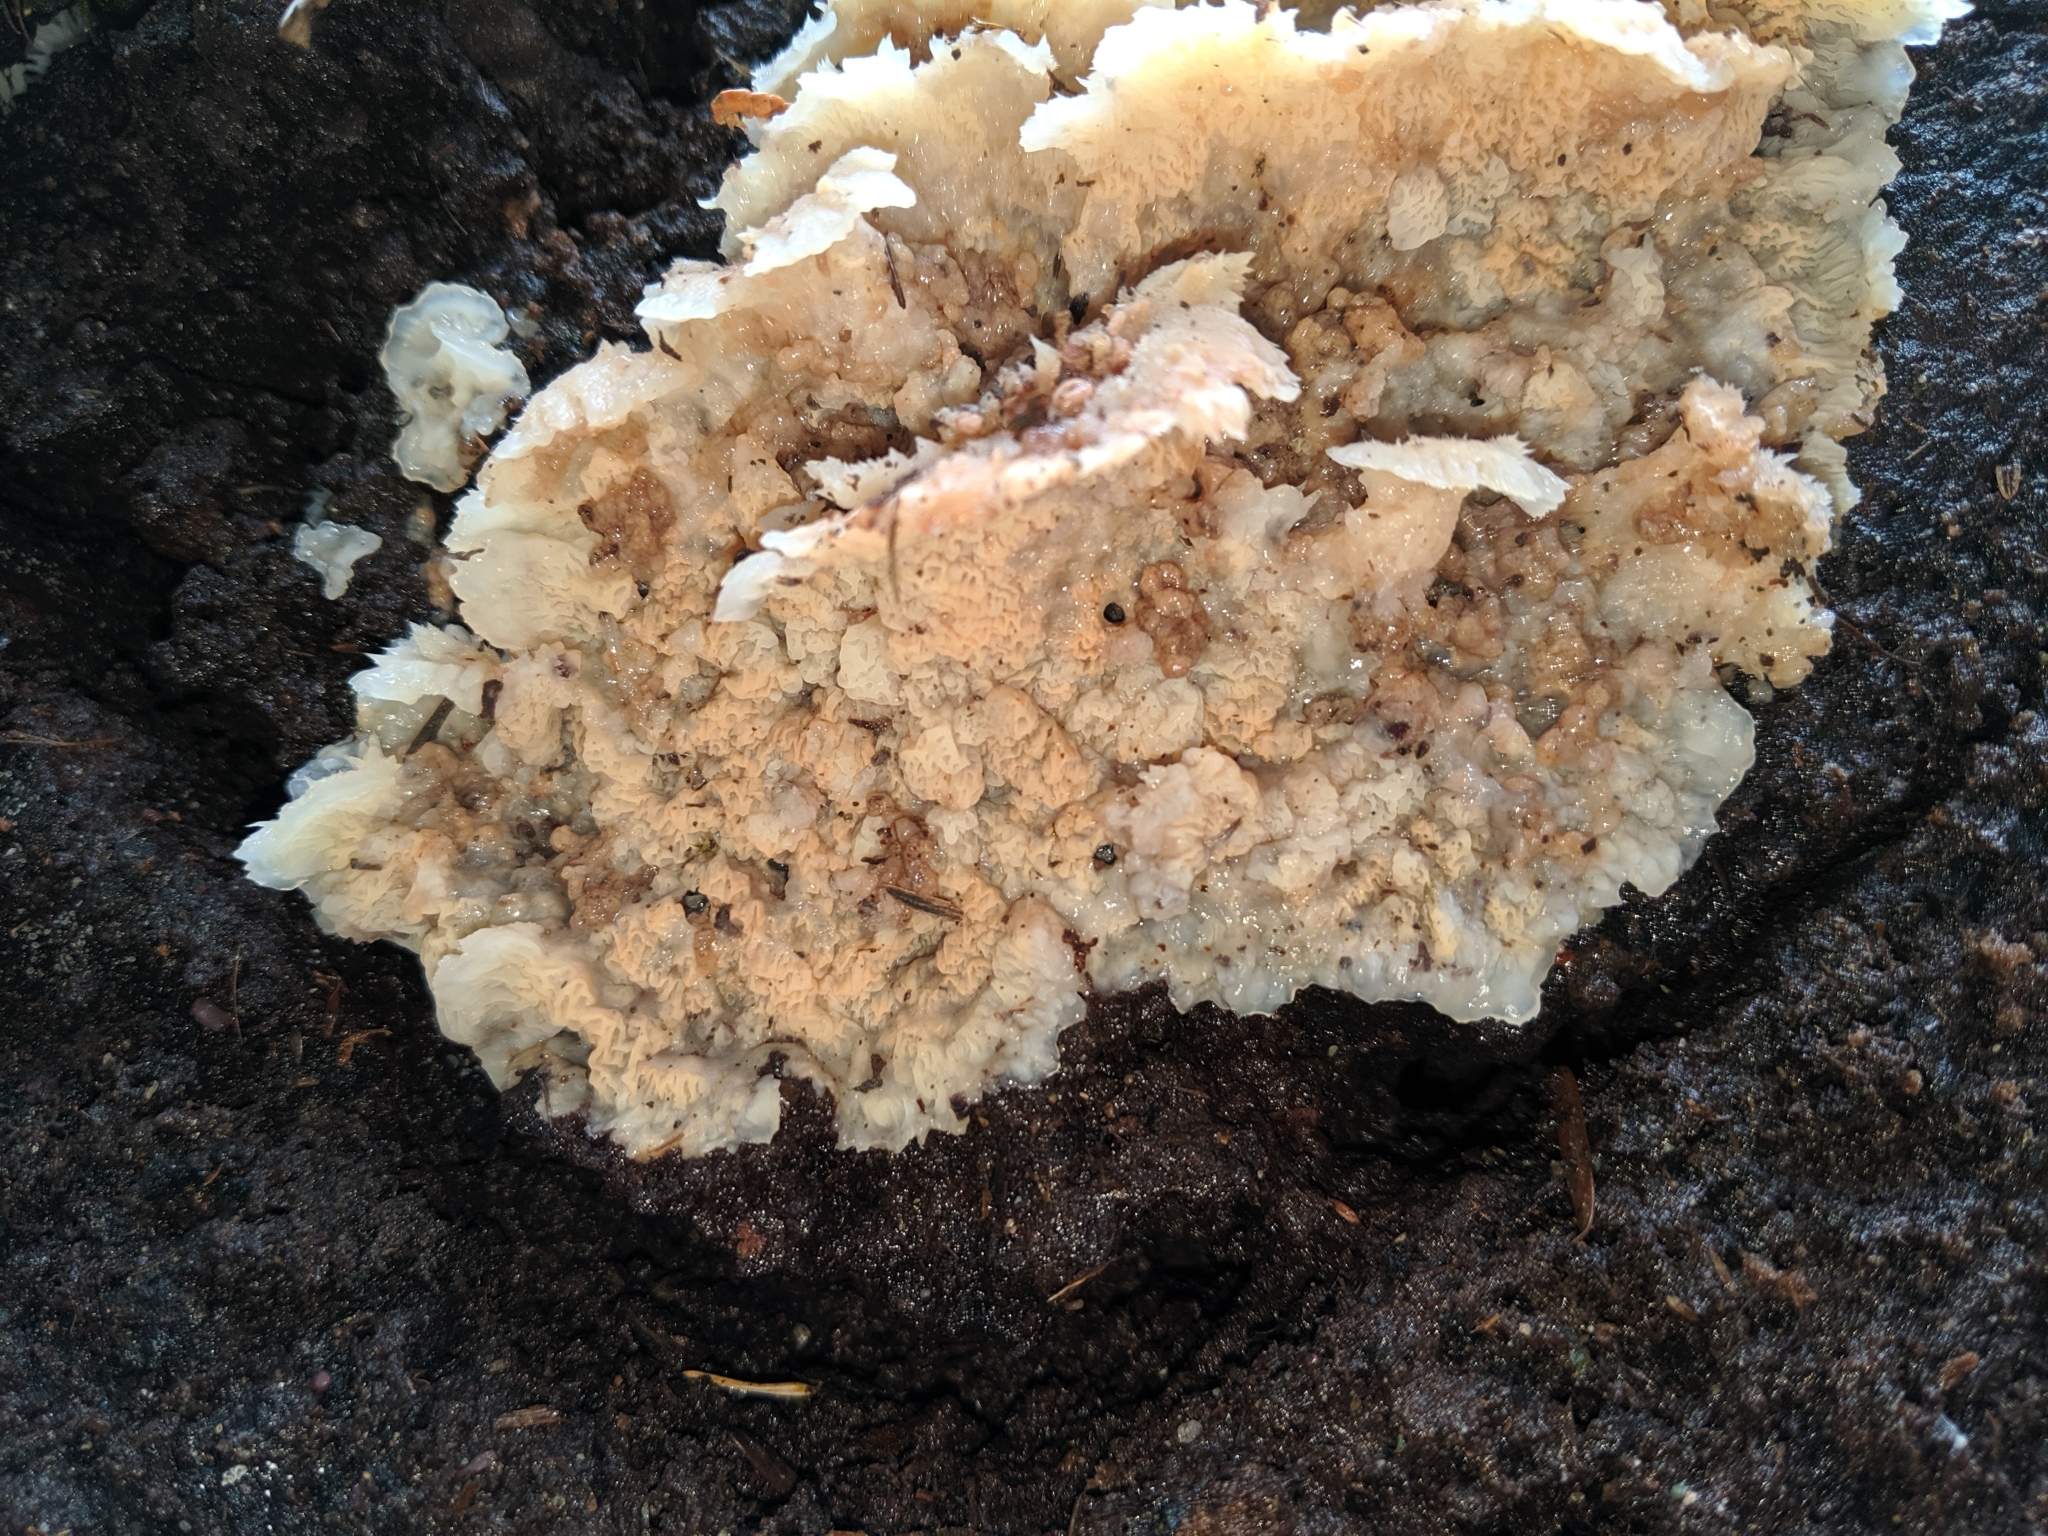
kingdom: Fungi
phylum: Basidiomycota
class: Agaricomycetes
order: Polyporales
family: Meruliaceae
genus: Phlebia
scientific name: Phlebia tremellosa
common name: Jelly rot
